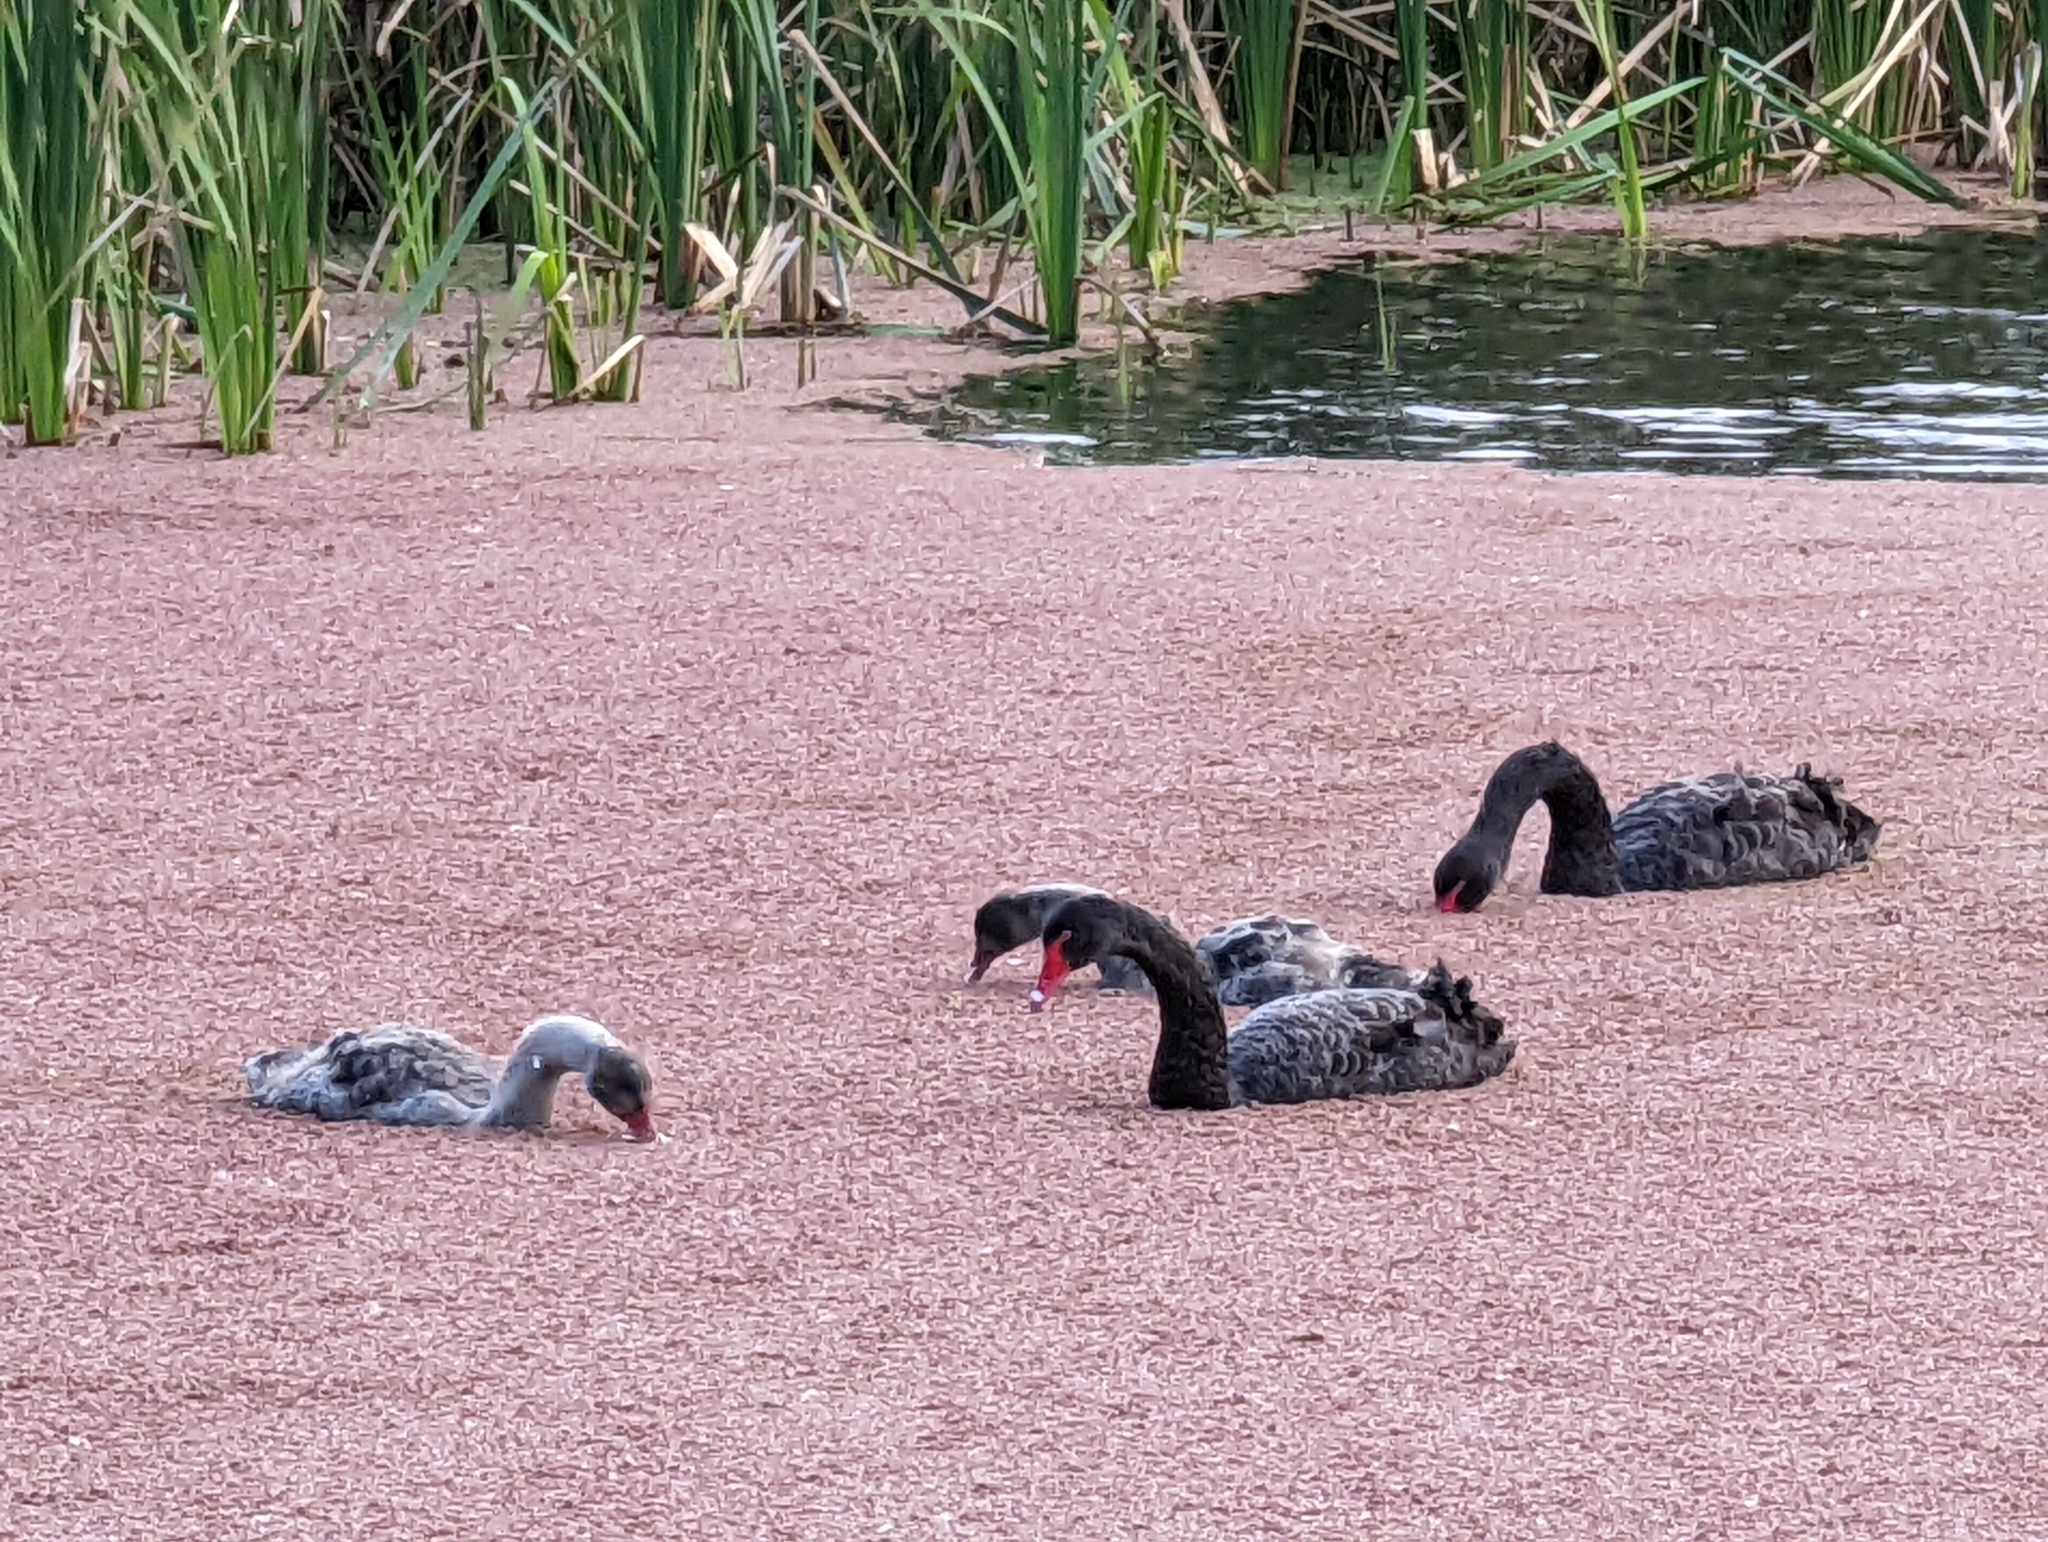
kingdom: Animalia
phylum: Chordata
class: Aves
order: Anseriformes
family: Anatidae
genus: Cygnus
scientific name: Cygnus atratus
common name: Black swan
